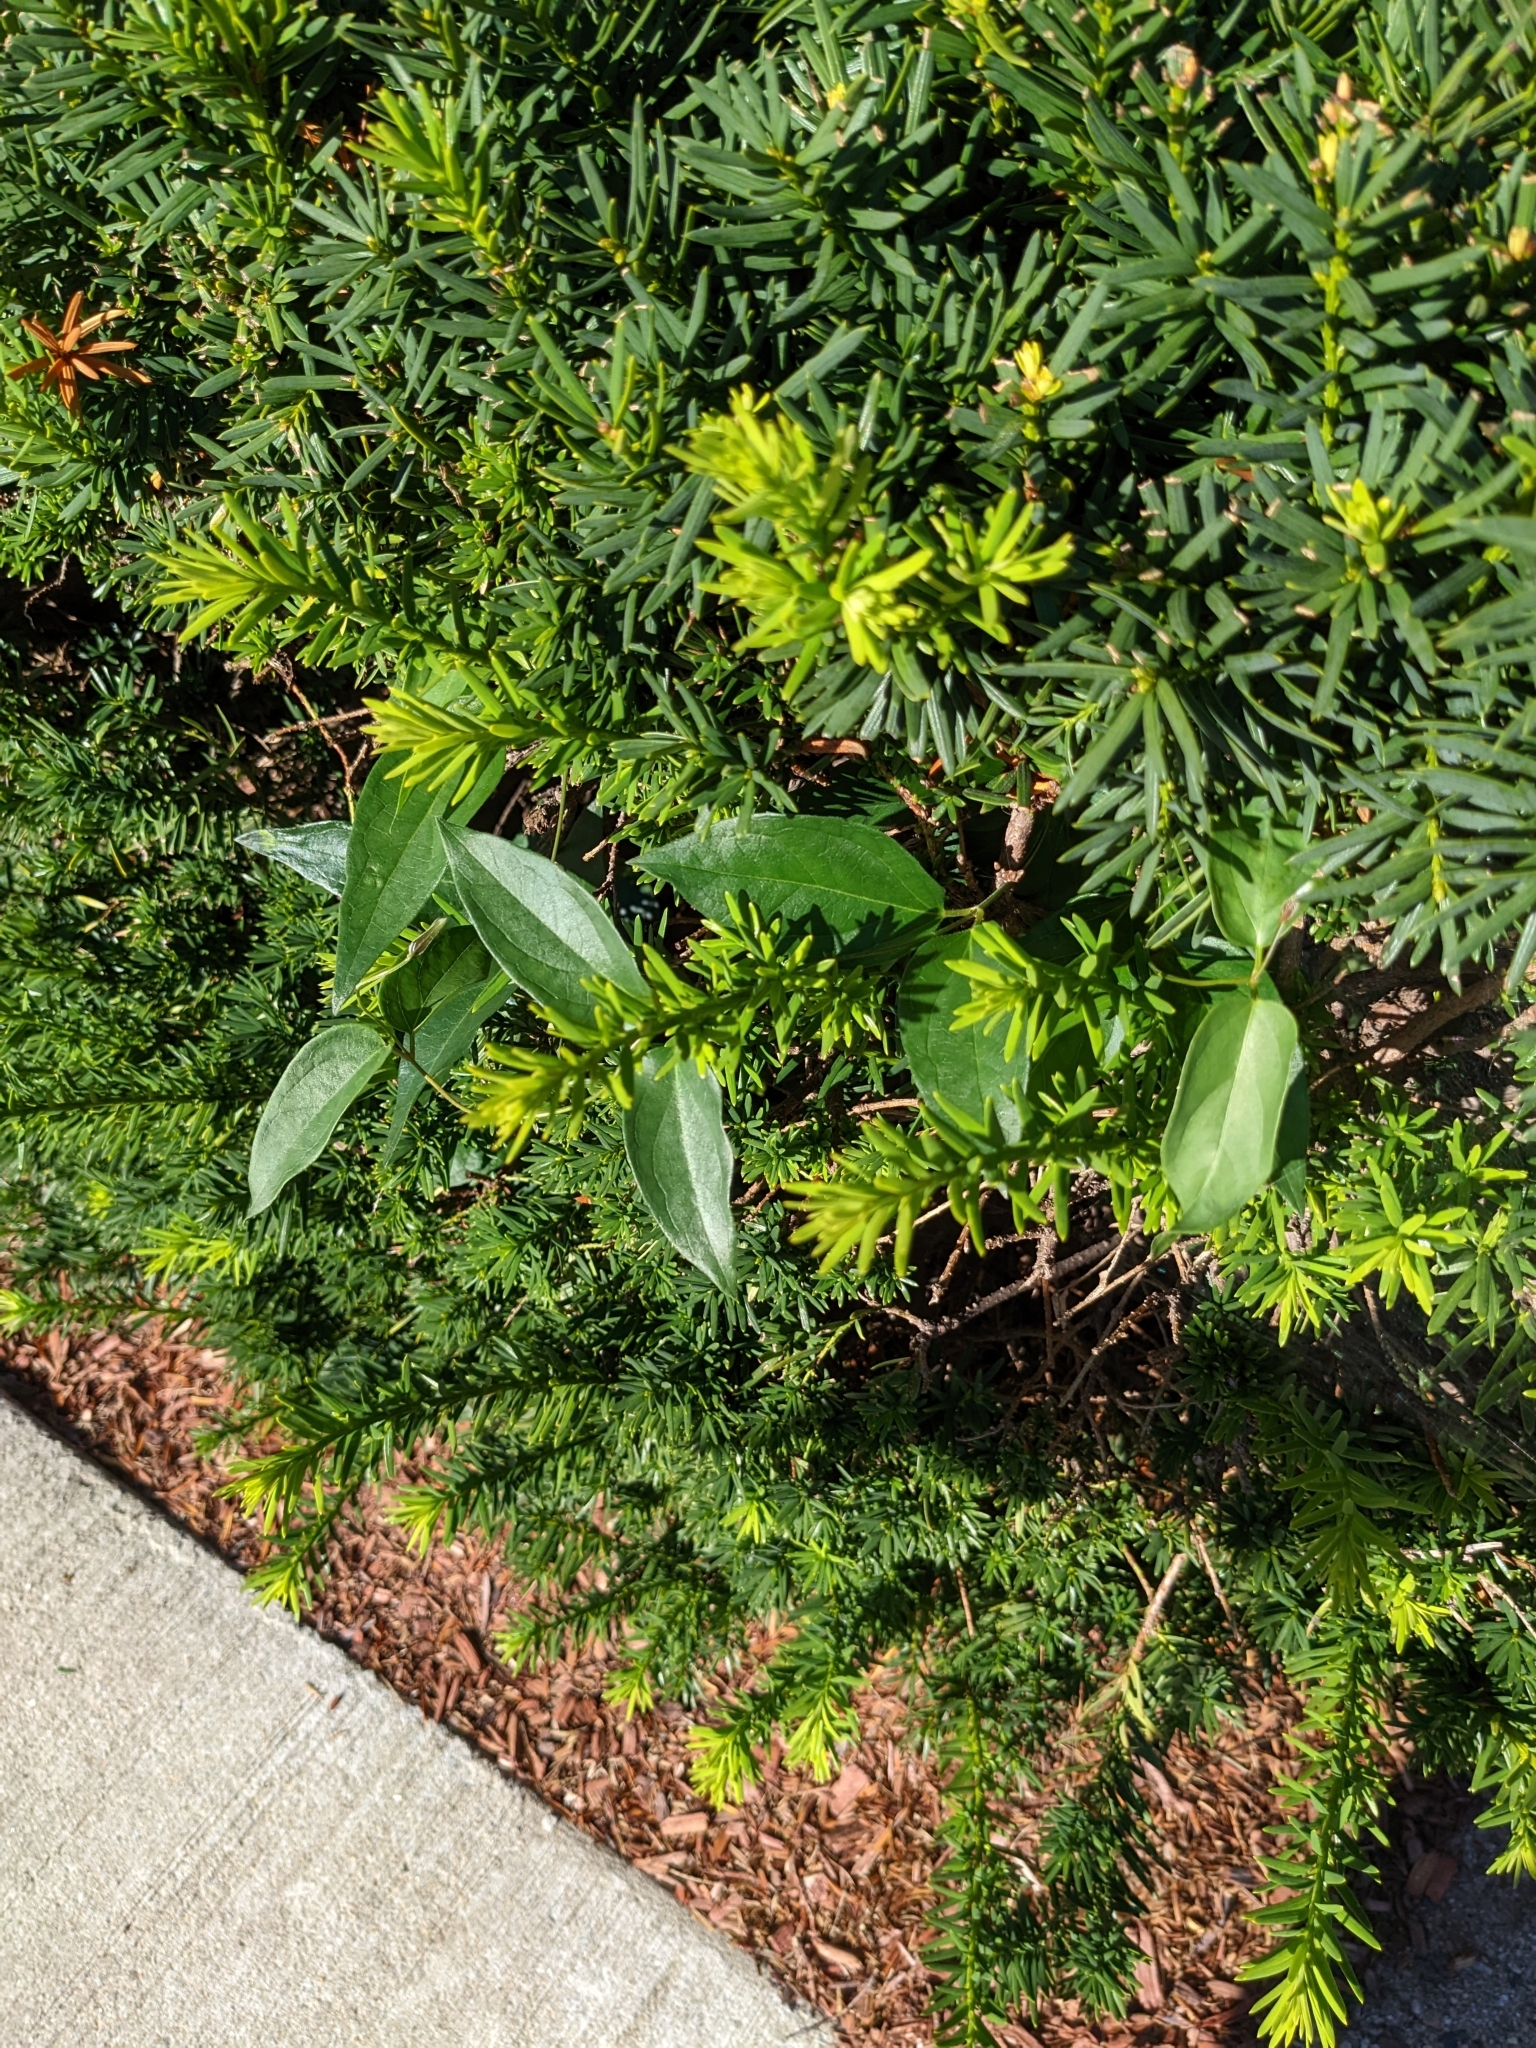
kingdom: Plantae
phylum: Tracheophyta
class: Magnoliopsida
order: Gentianales
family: Apocynaceae
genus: Vincetoxicum
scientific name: Vincetoxicum nigrum
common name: Black swallow-wort
